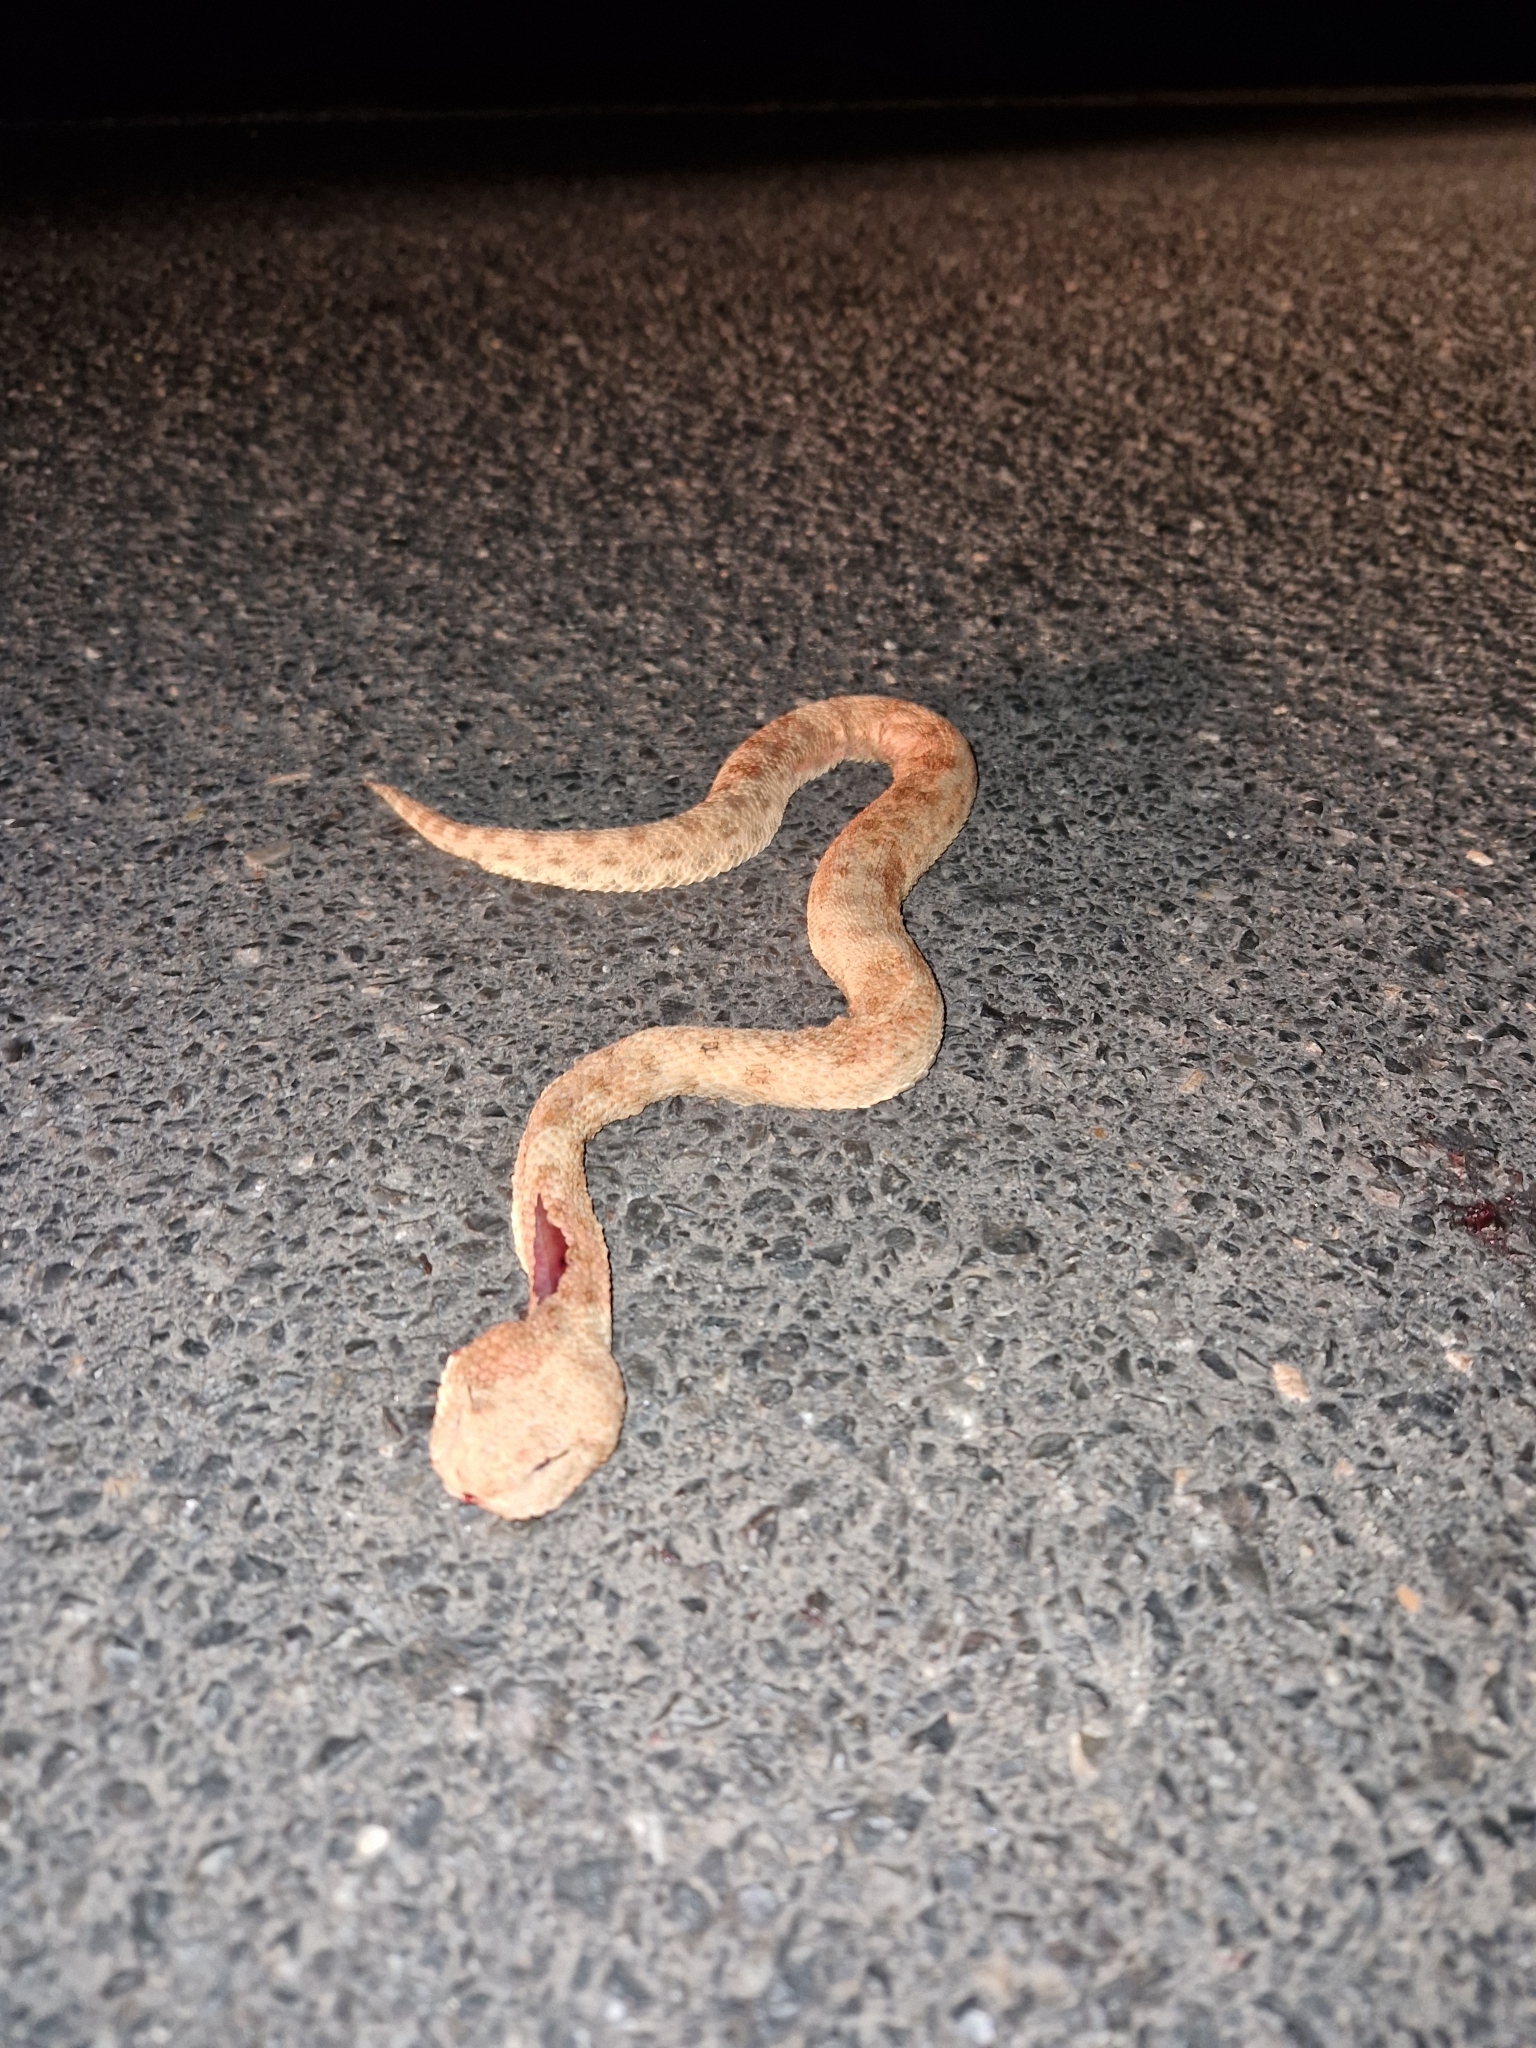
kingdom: Animalia
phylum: Chordata
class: Squamata
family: Viperidae
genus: Cerastes
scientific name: Cerastes cerastes
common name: Desert horned viper
